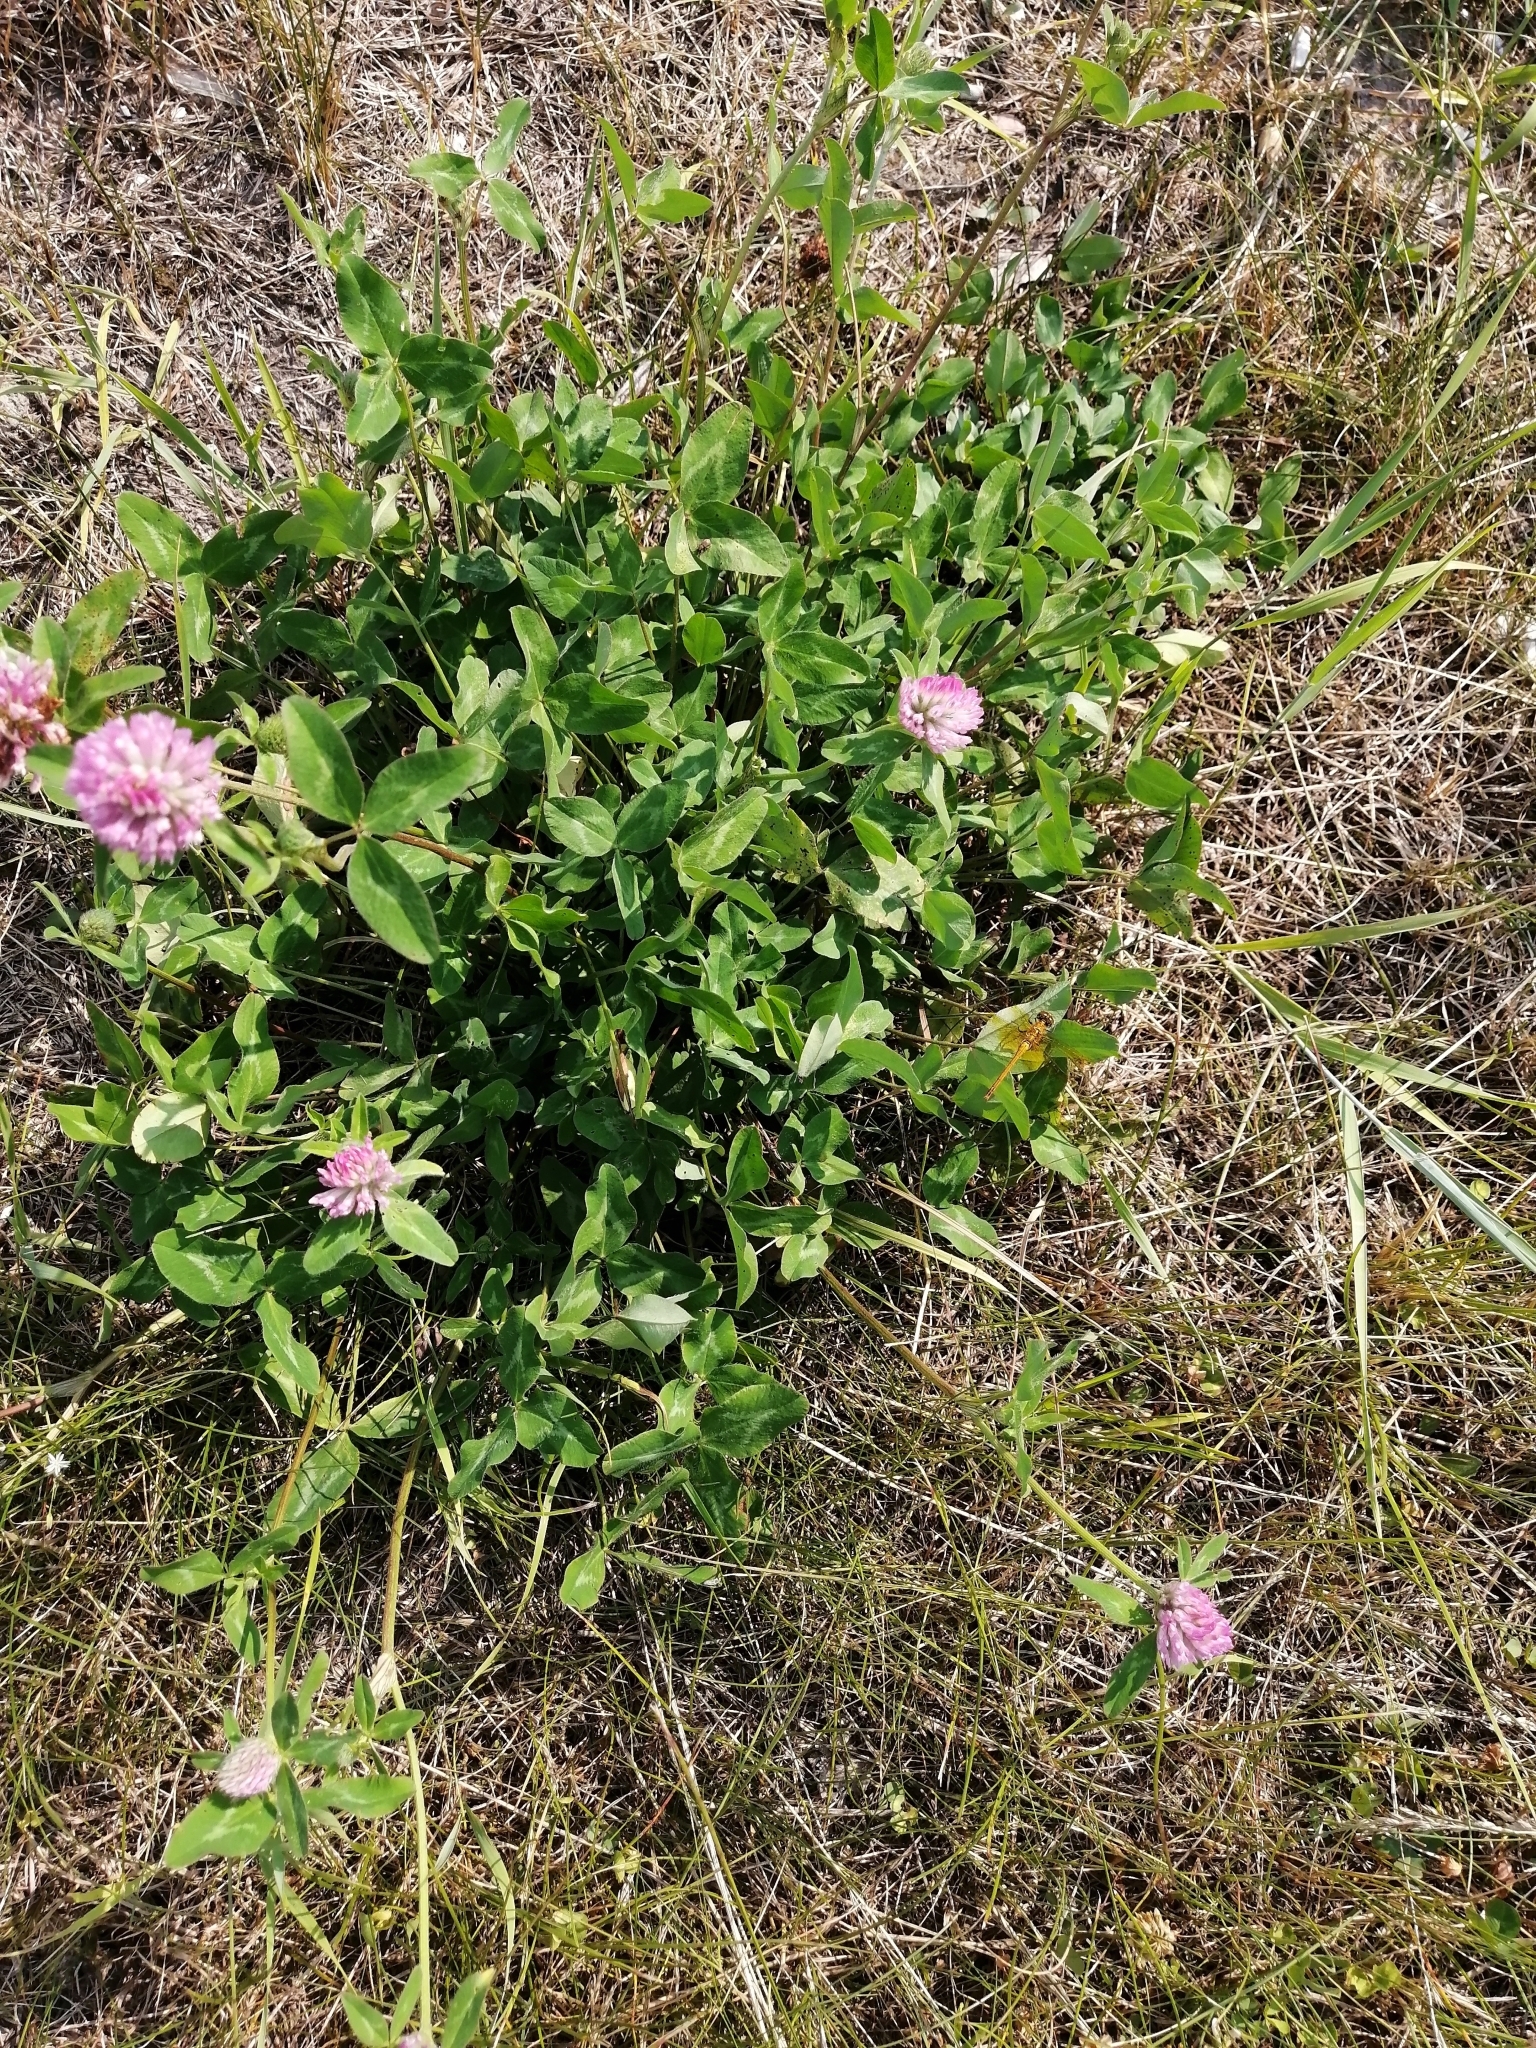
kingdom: Plantae
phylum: Tracheophyta
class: Magnoliopsida
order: Fabales
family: Fabaceae
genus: Trifolium
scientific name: Trifolium pratense
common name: Red clover
